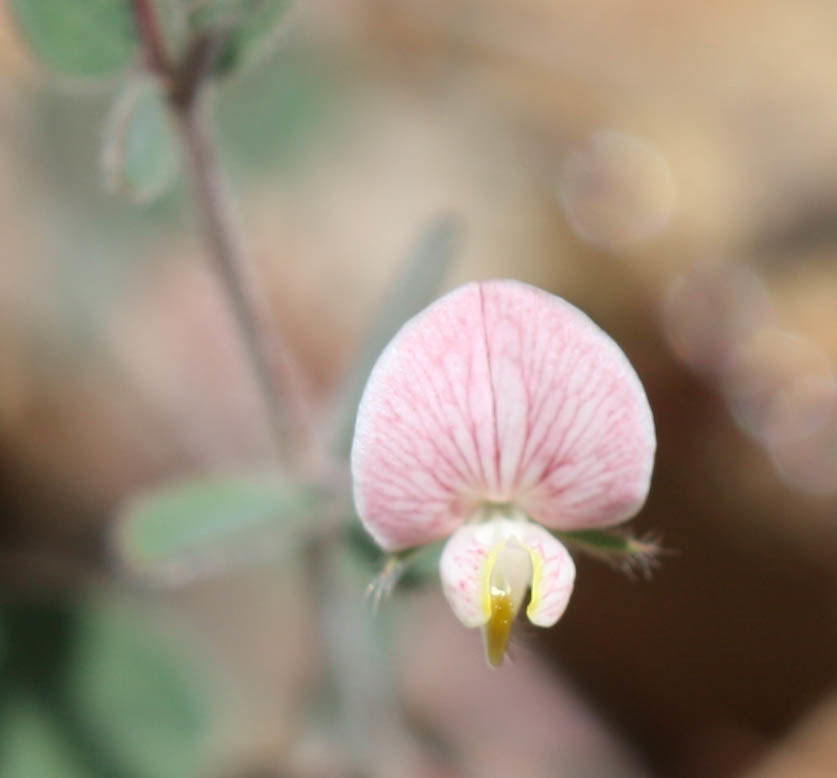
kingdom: Plantae
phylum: Tracheophyta
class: Magnoliopsida
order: Fabales
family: Fabaceae
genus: Acmispon
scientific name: Acmispon americanus
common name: American bird's-foot trefoil
